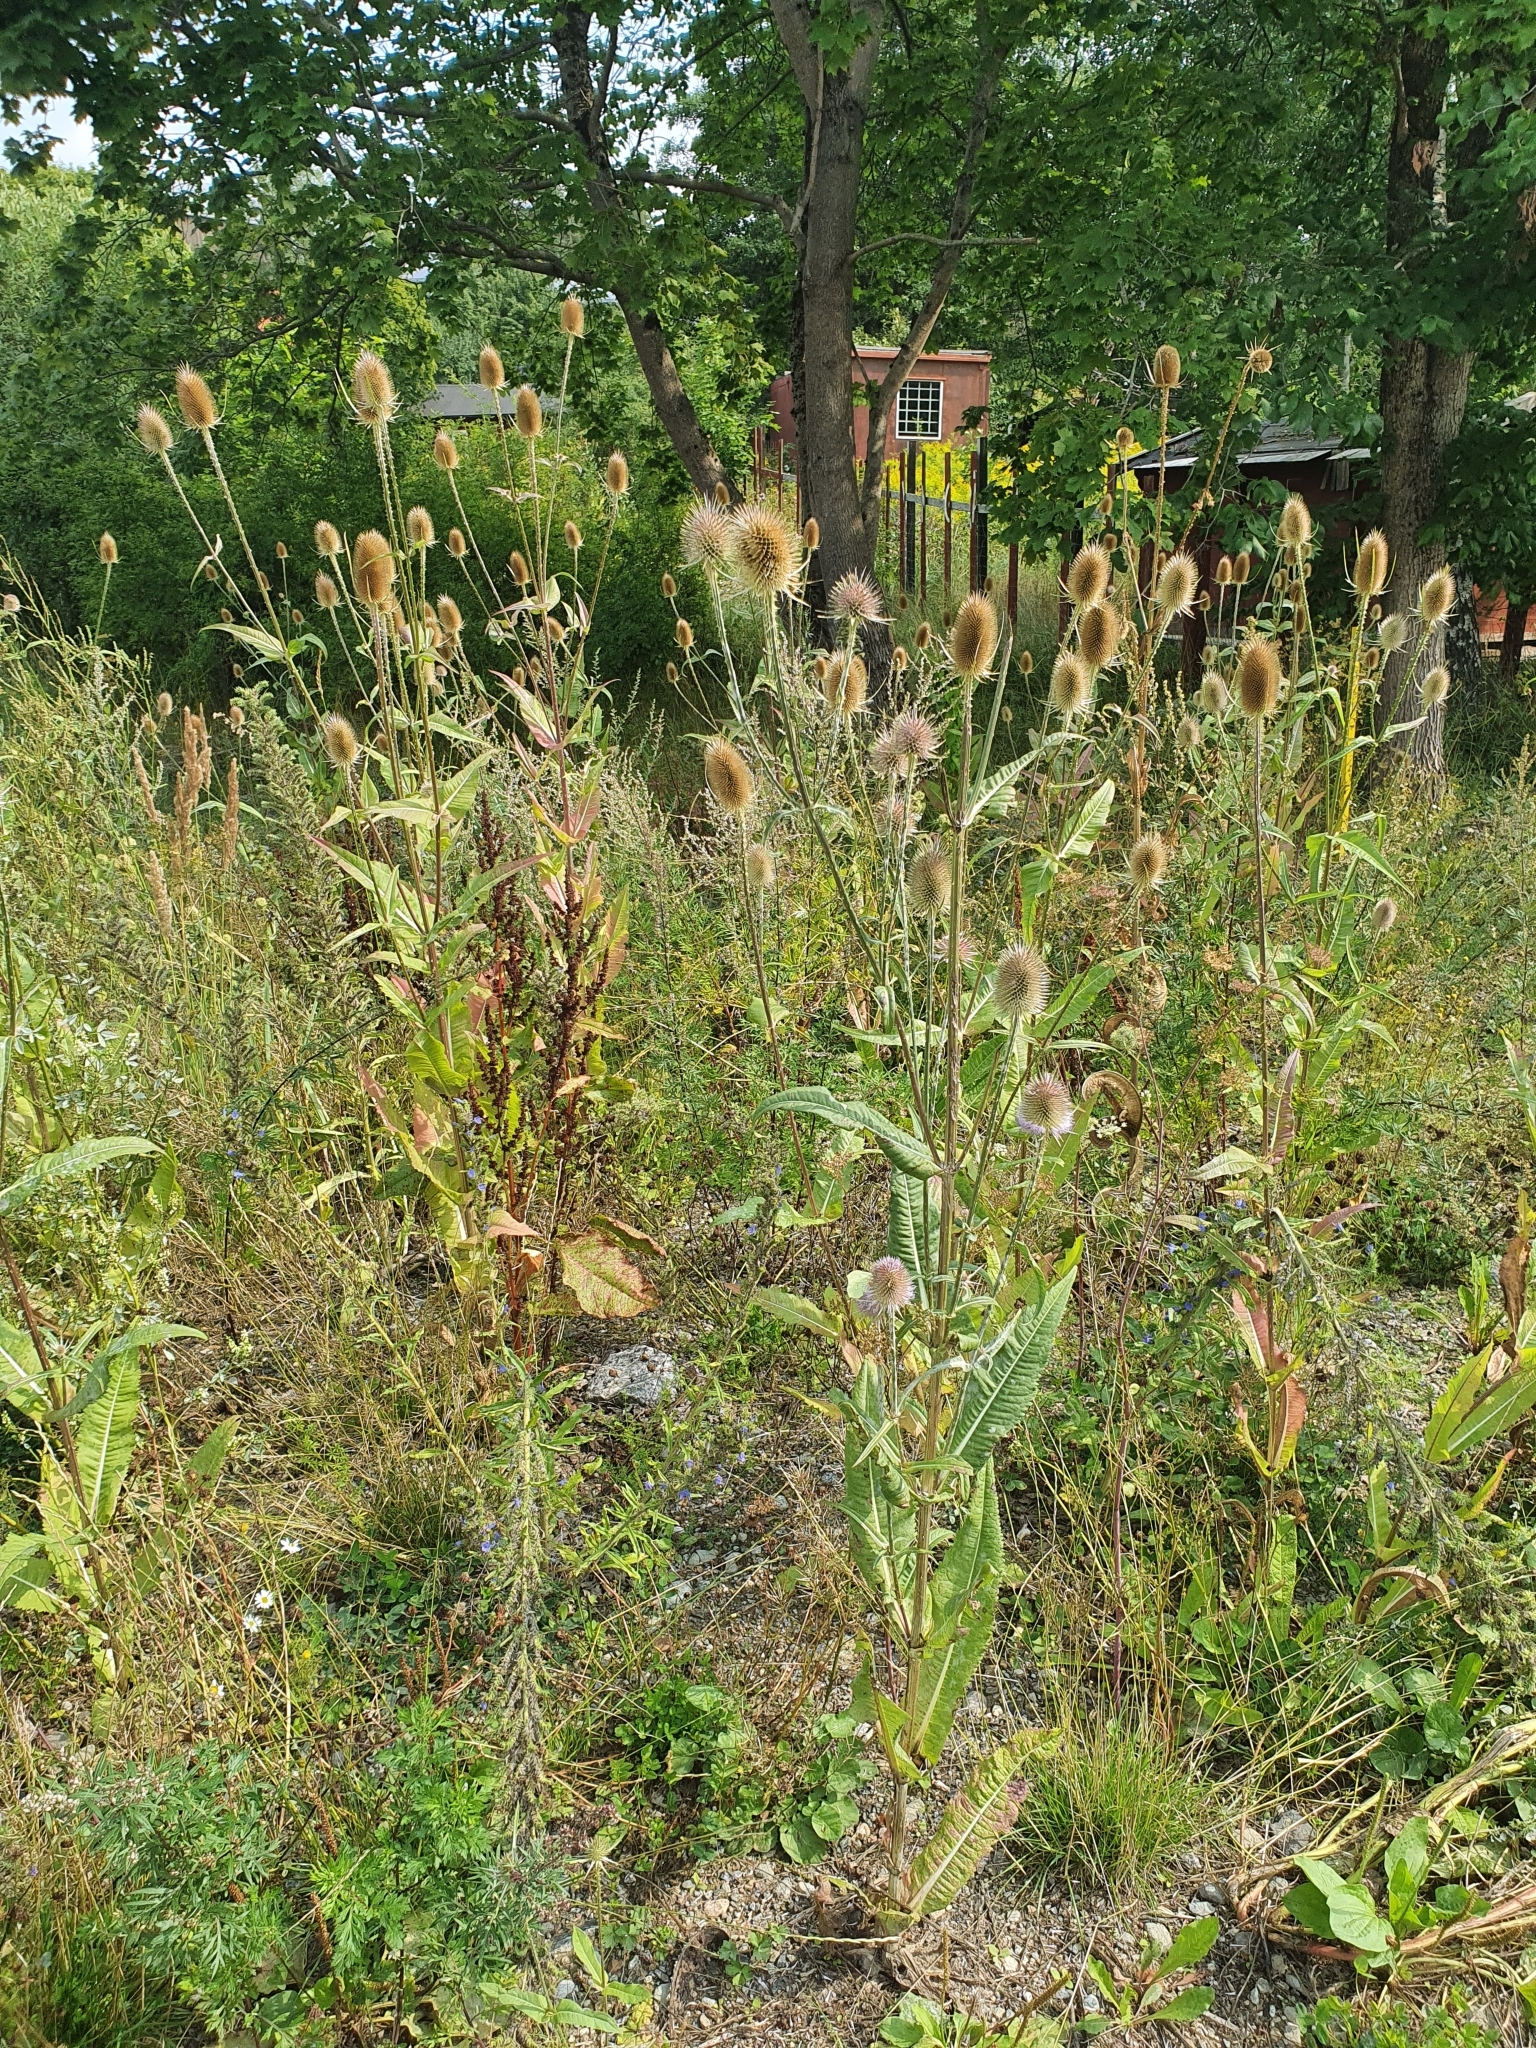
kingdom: Plantae
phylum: Tracheophyta
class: Magnoliopsida
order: Dipsacales
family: Caprifoliaceae
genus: Dipsacus
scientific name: Dipsacus fullonum
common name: Teasel
